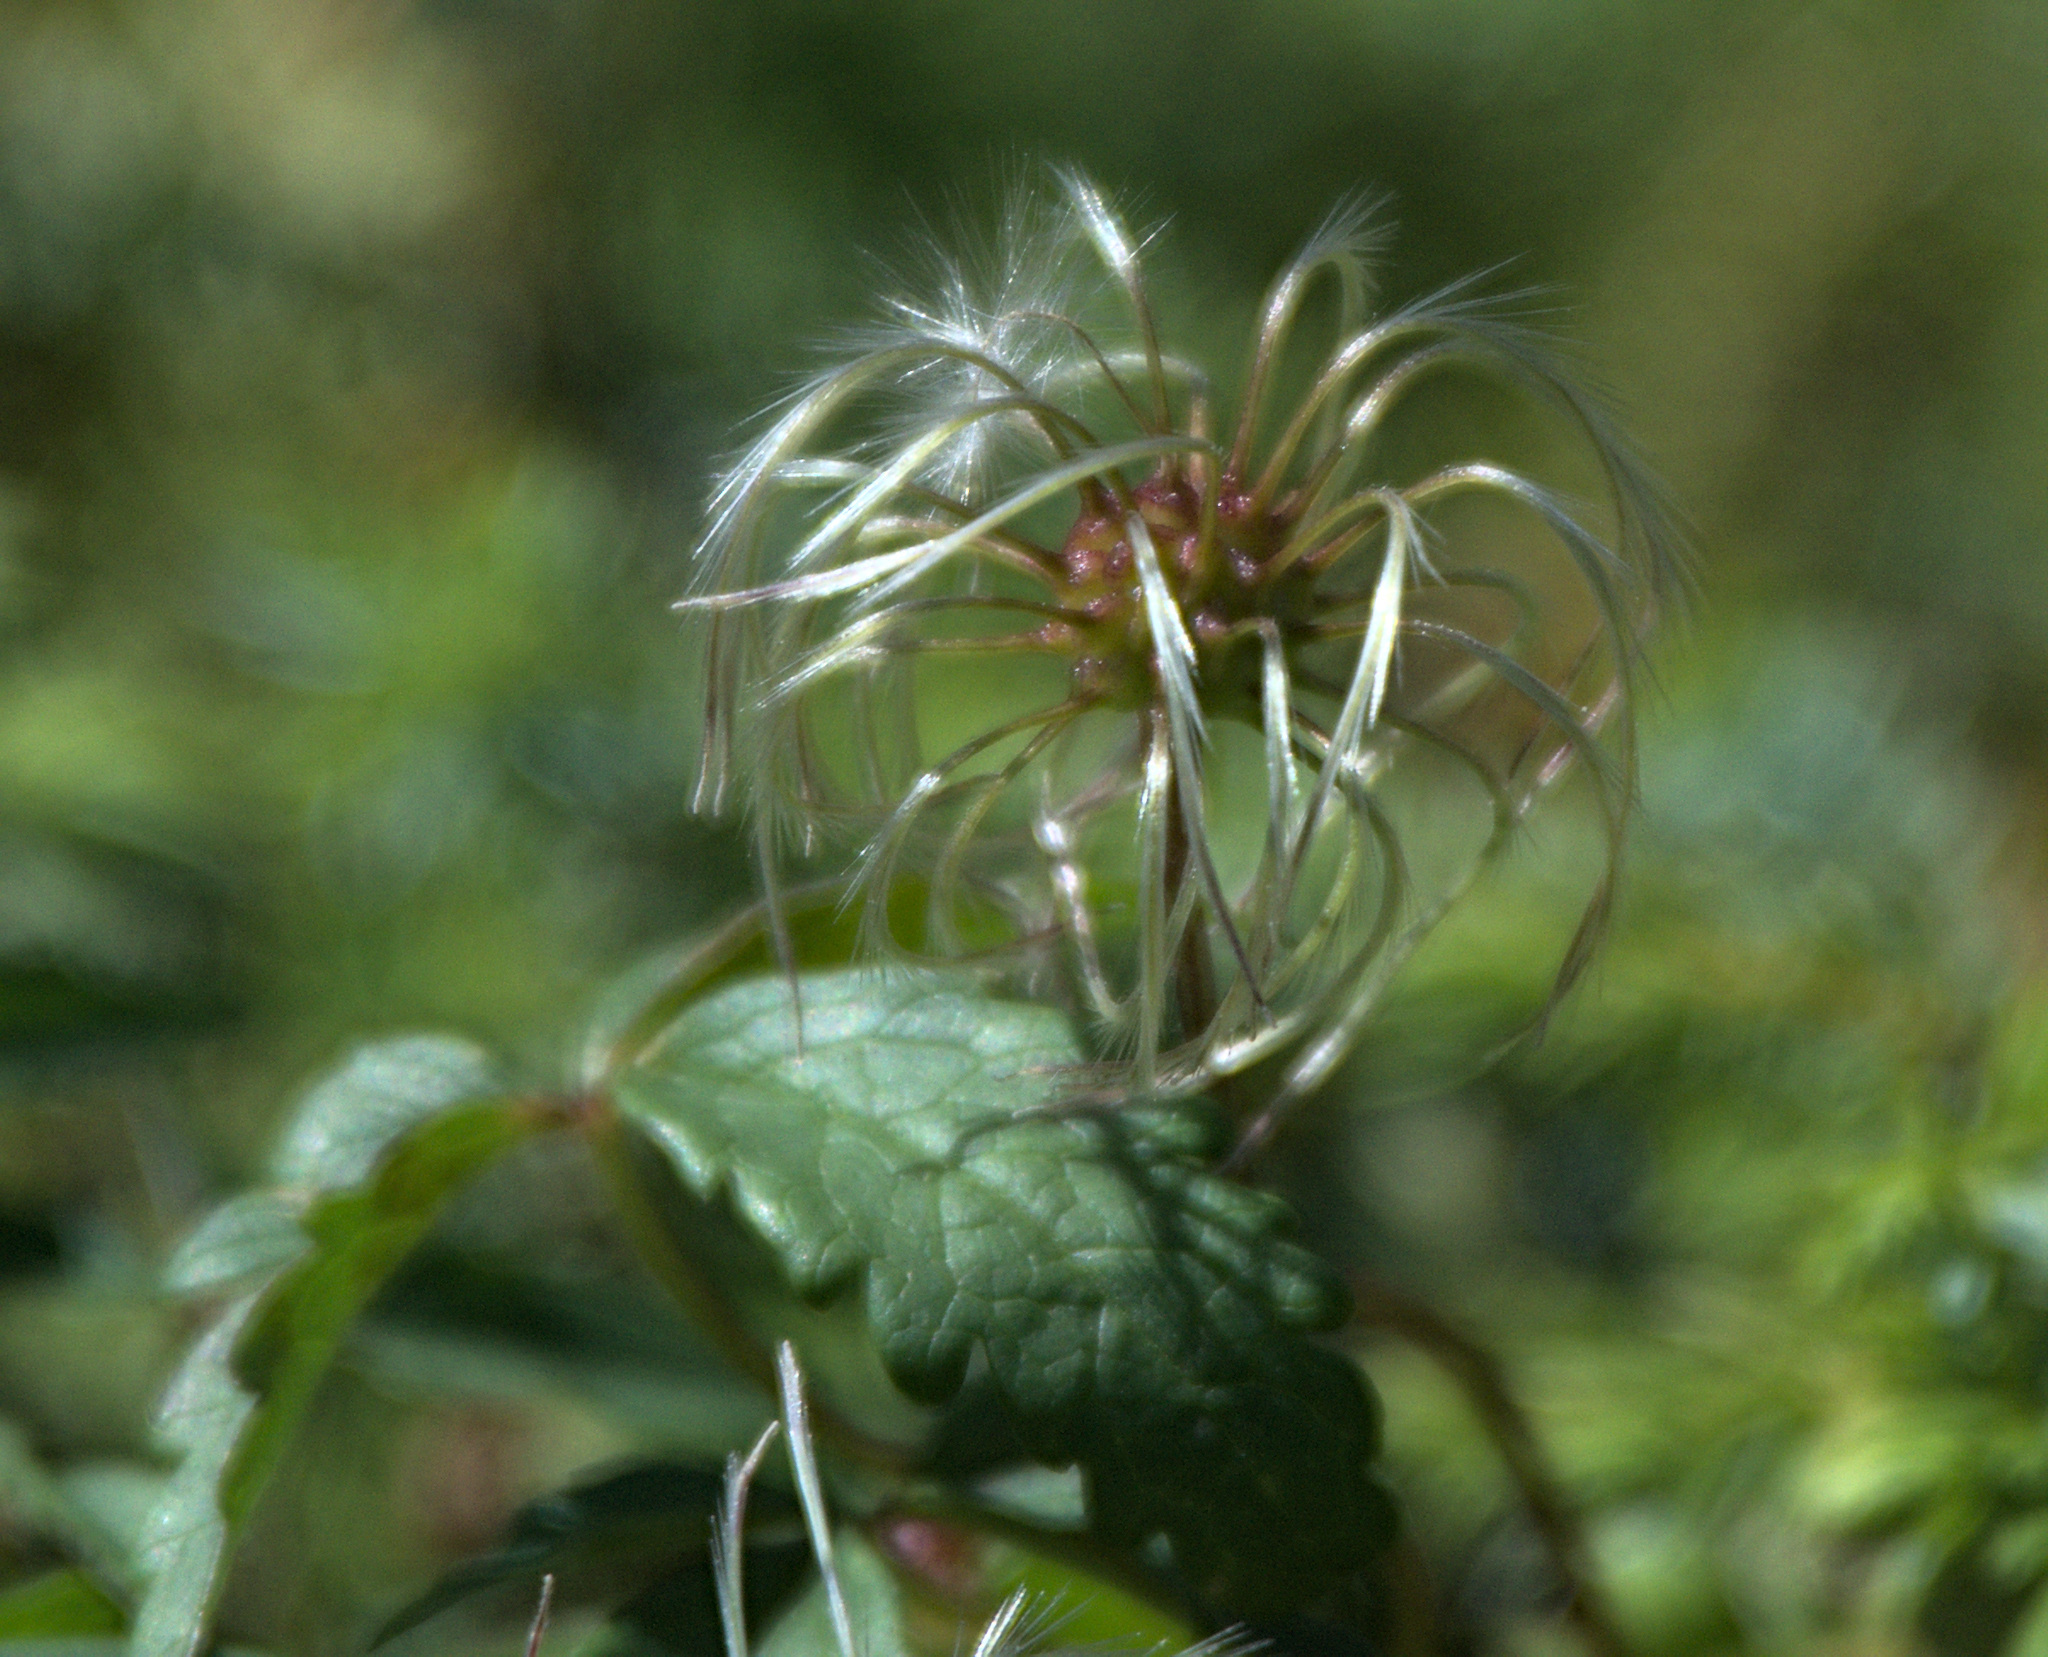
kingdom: Plantae
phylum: Tracheophyta
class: Magnoliopsida
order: Ranunculales
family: Ranunculaceae
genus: Clematis
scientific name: Clematis sibirica
